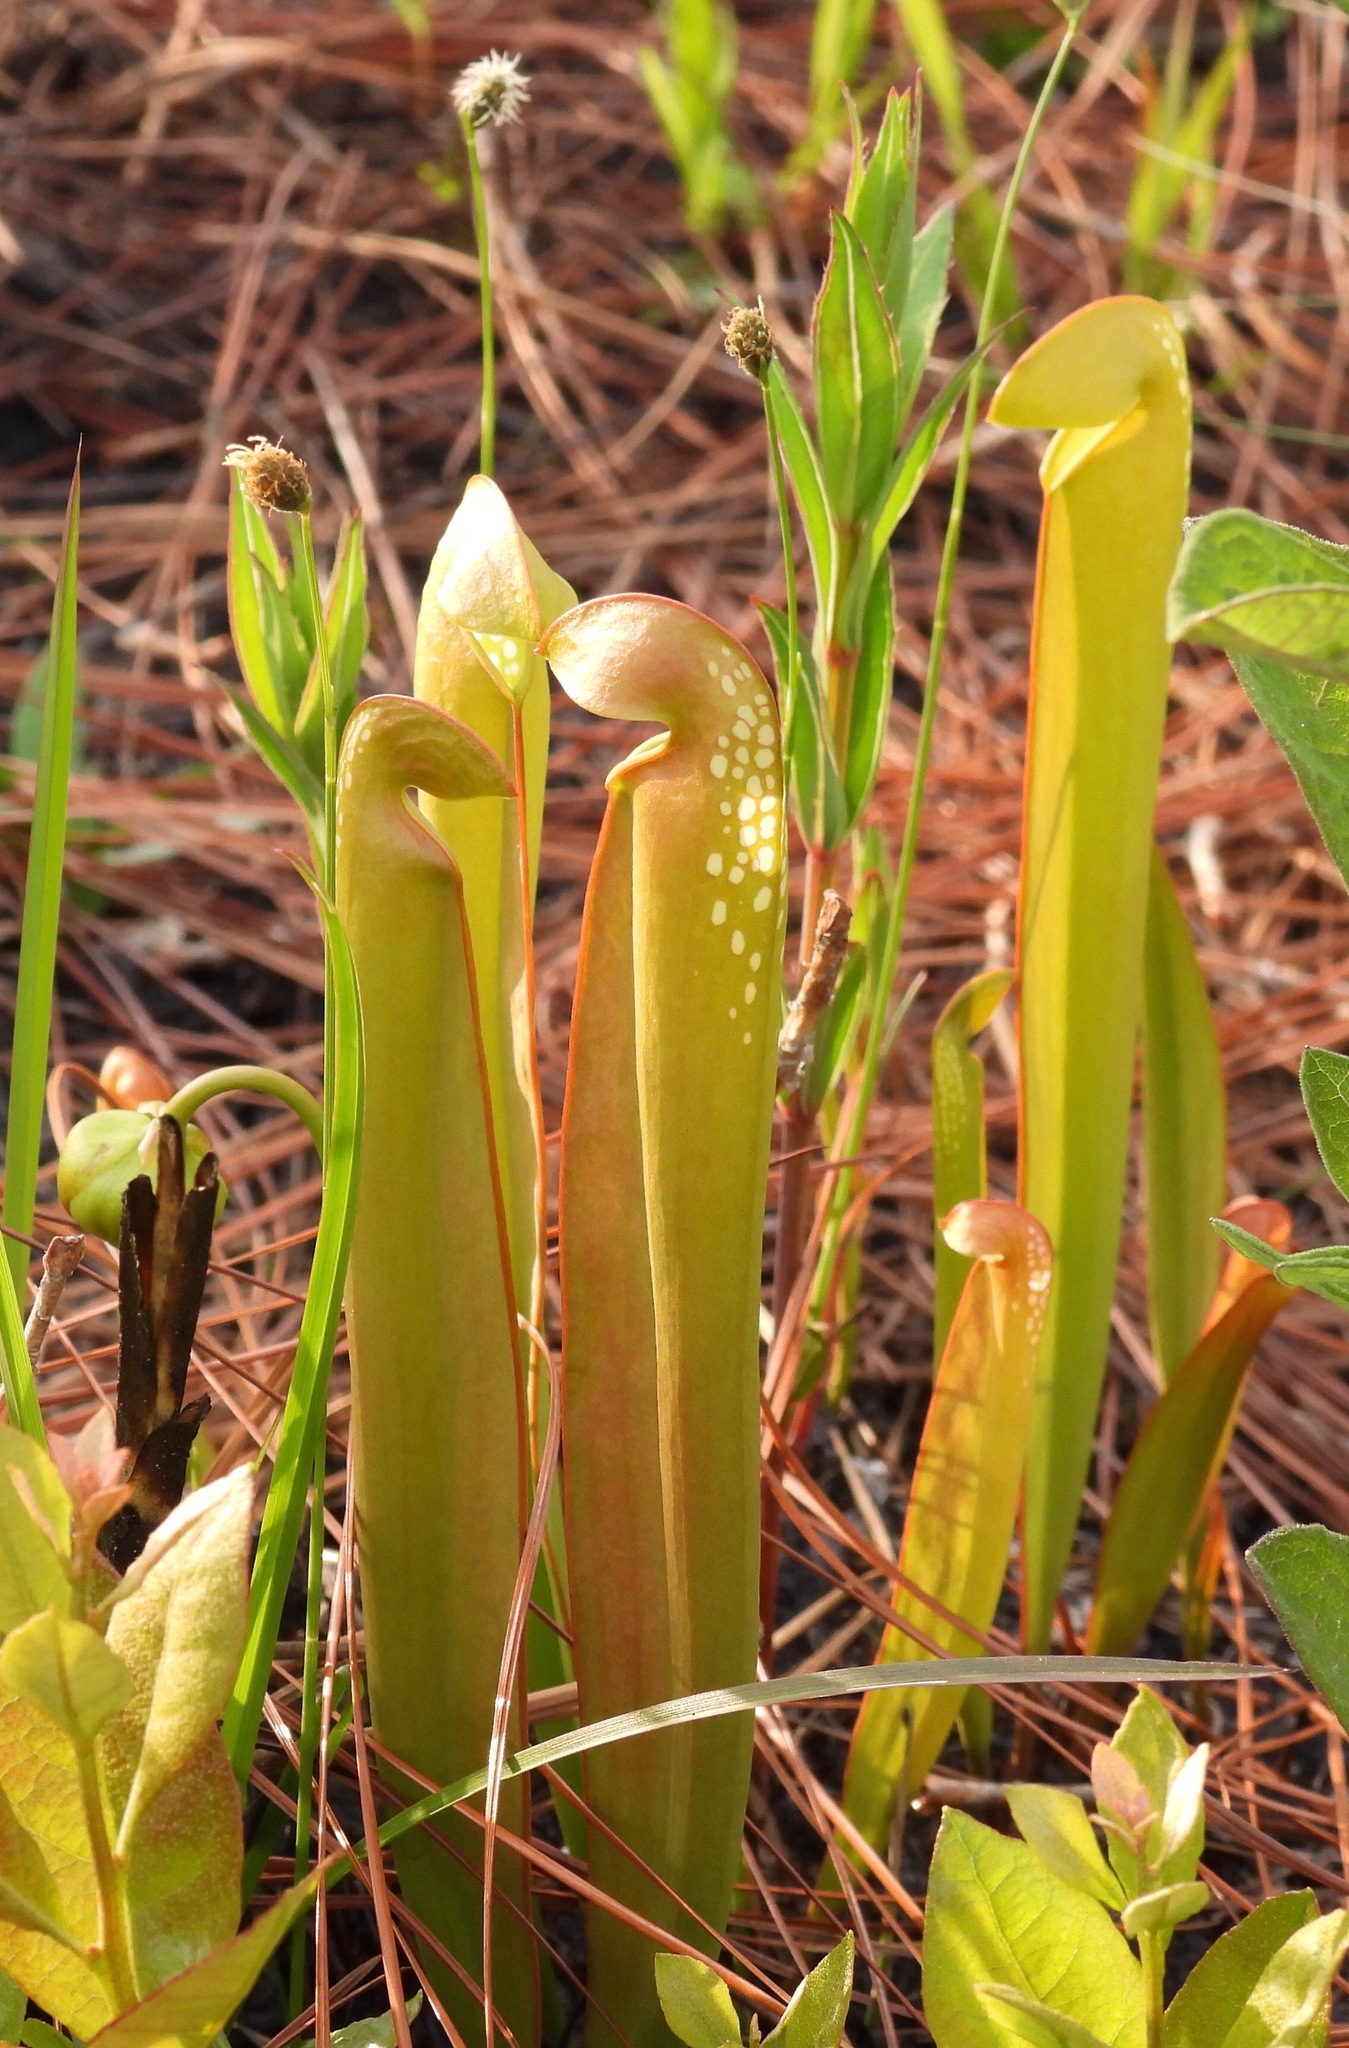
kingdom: Plantae
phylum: Tracheophyta
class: Magnoliopsida
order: Ericales
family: Sarraceniaceae
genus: Sarracenia
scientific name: Sarracenia minor
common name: Rainhat-trumpet
